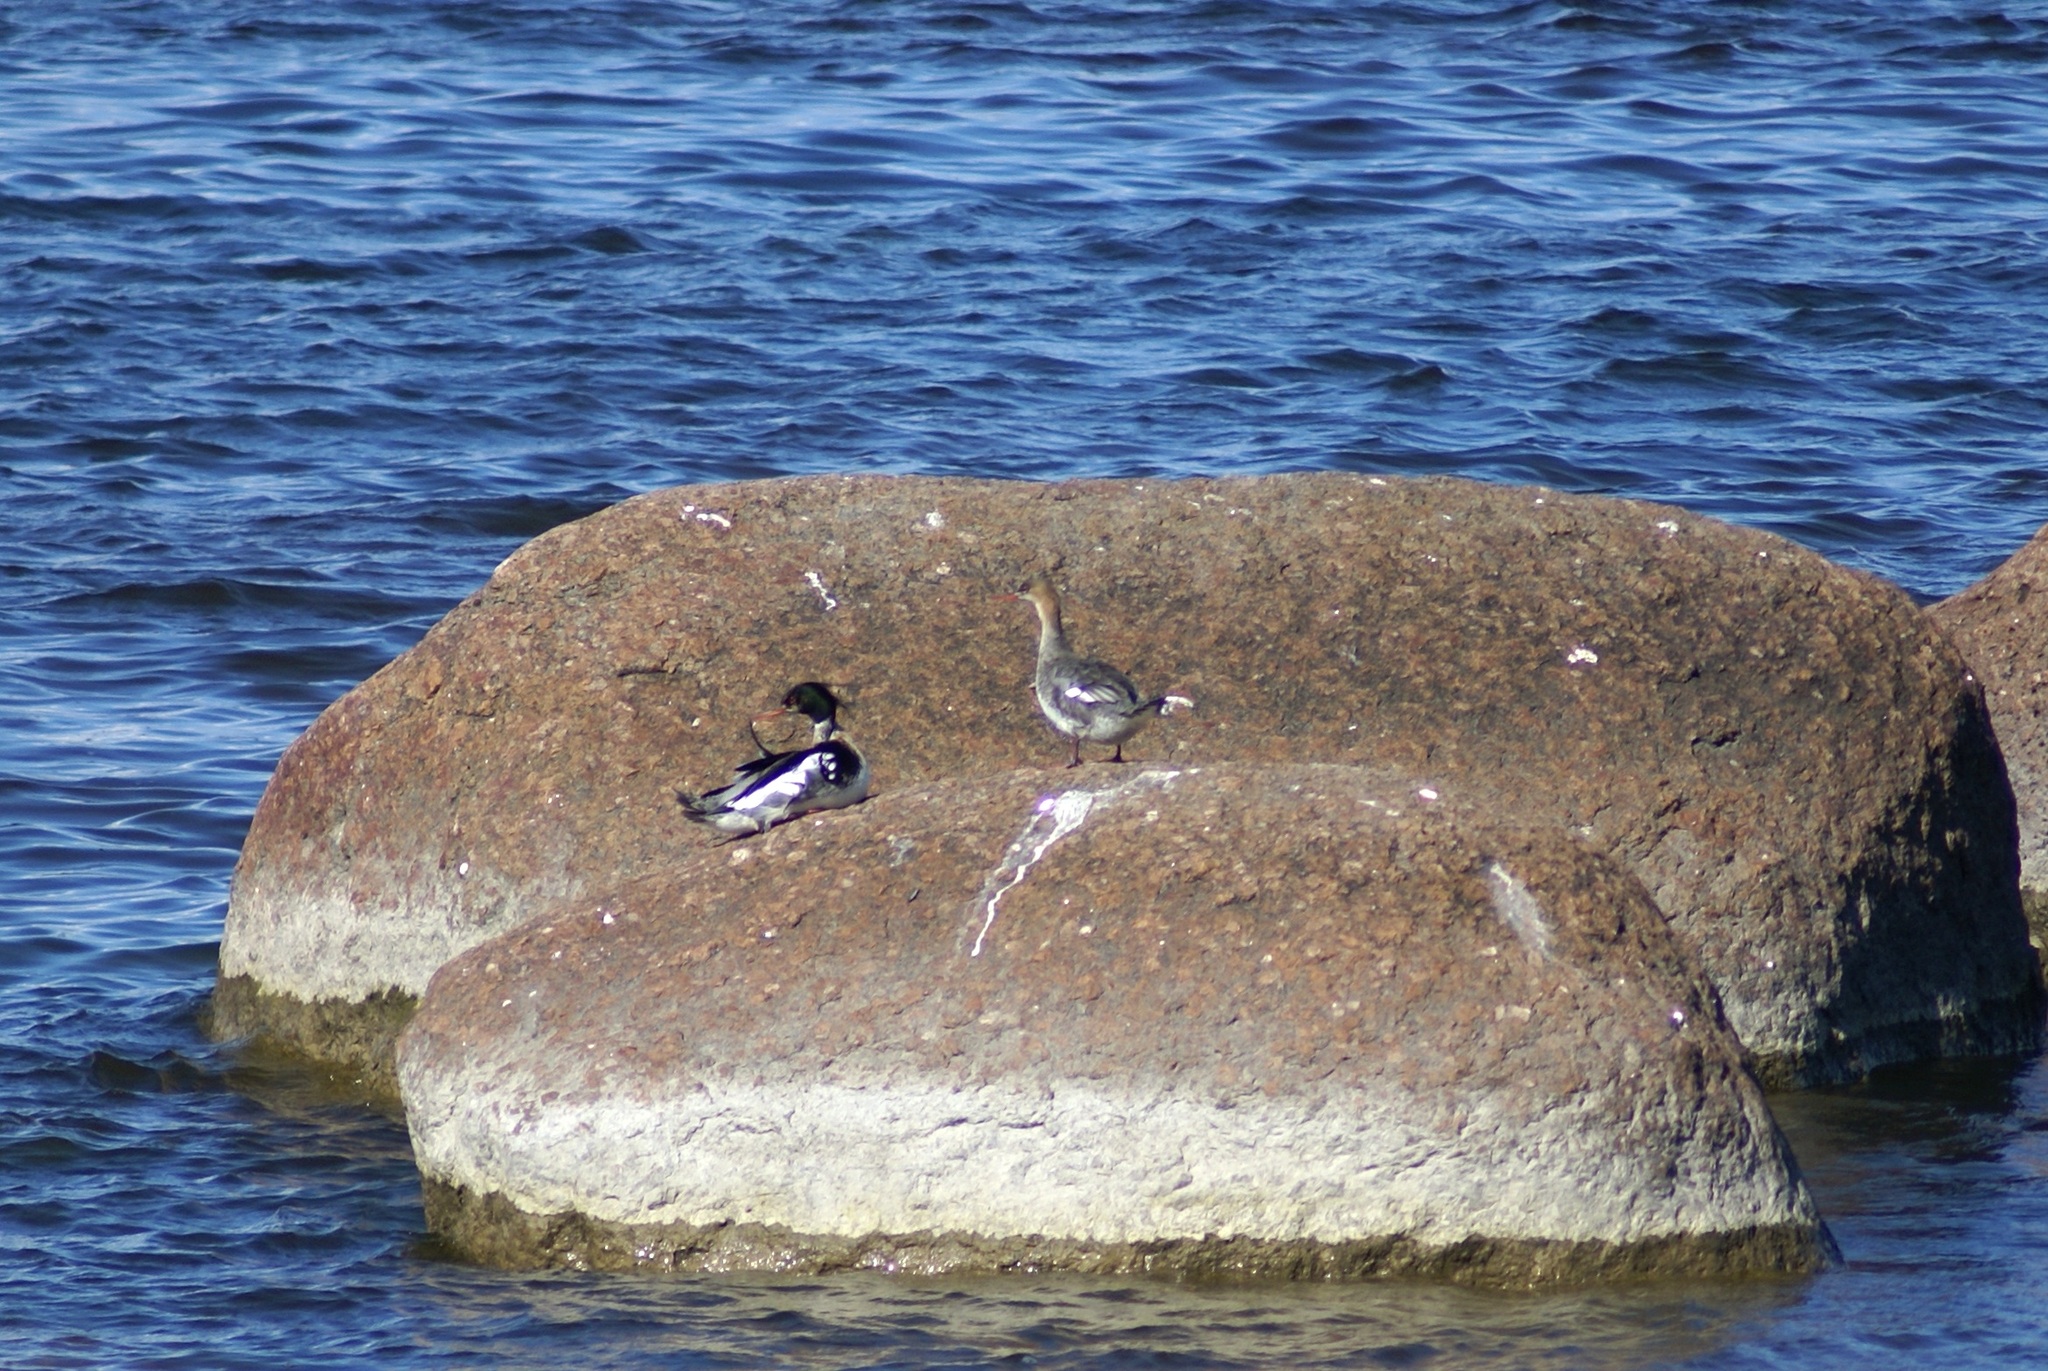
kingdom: Animalia
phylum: Chordata
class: Aves
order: Anseriformes
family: Anatidae
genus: Mergus
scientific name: Mergus serrator
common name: Red-breasted merganser
